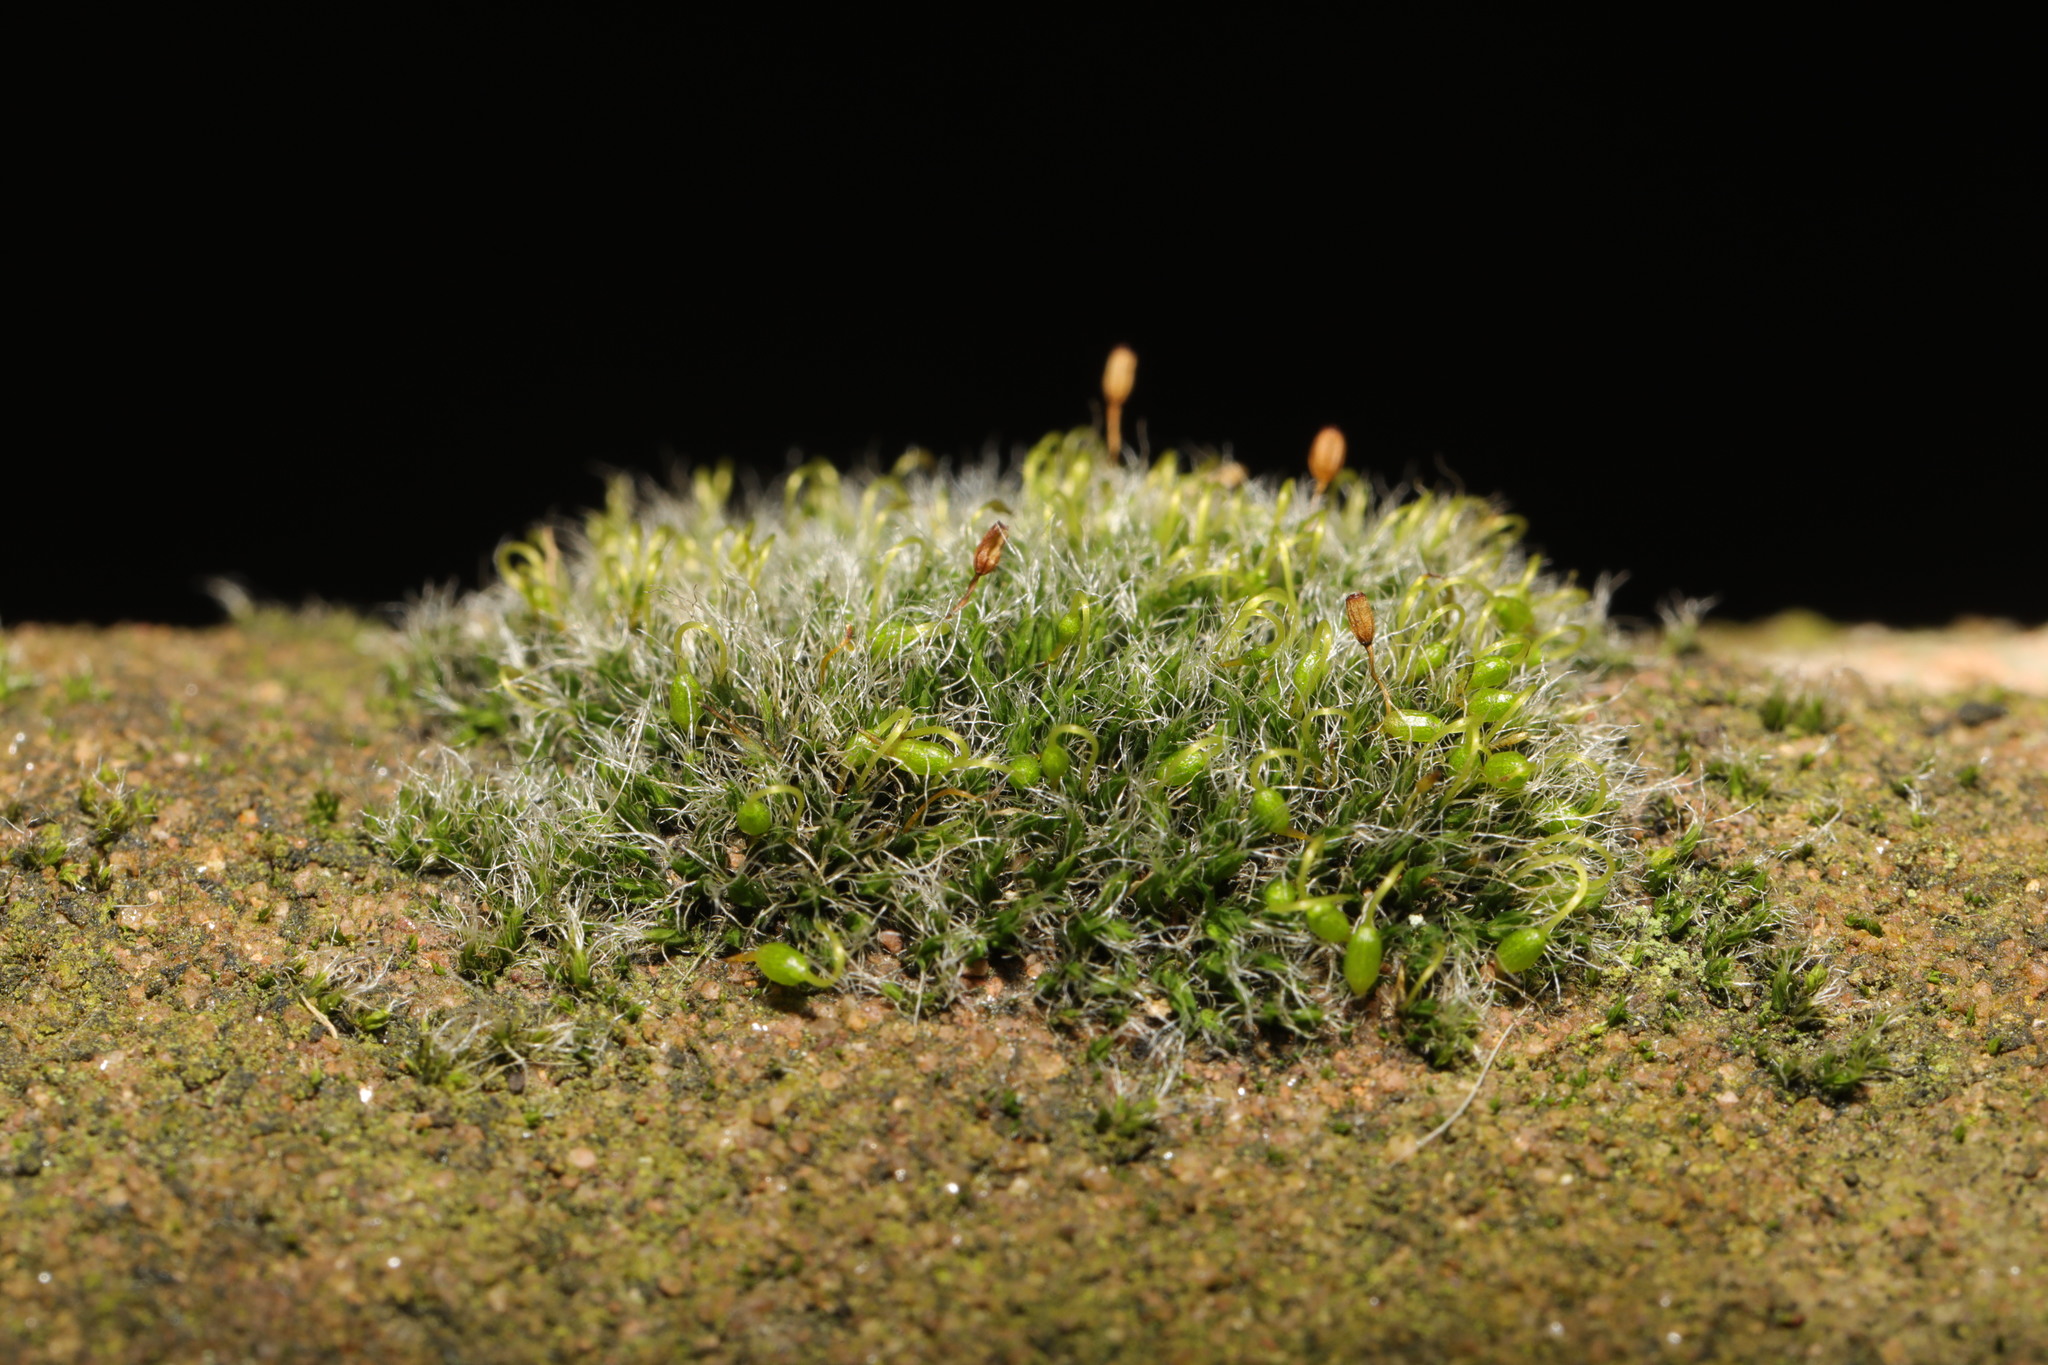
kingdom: Plantae
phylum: Bryophyta
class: Bryopsida
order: Grimmiales
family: Grimmiaceae
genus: Grimmia
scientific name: Grimmia pulvinata
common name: Grey-cushioned grimmia
